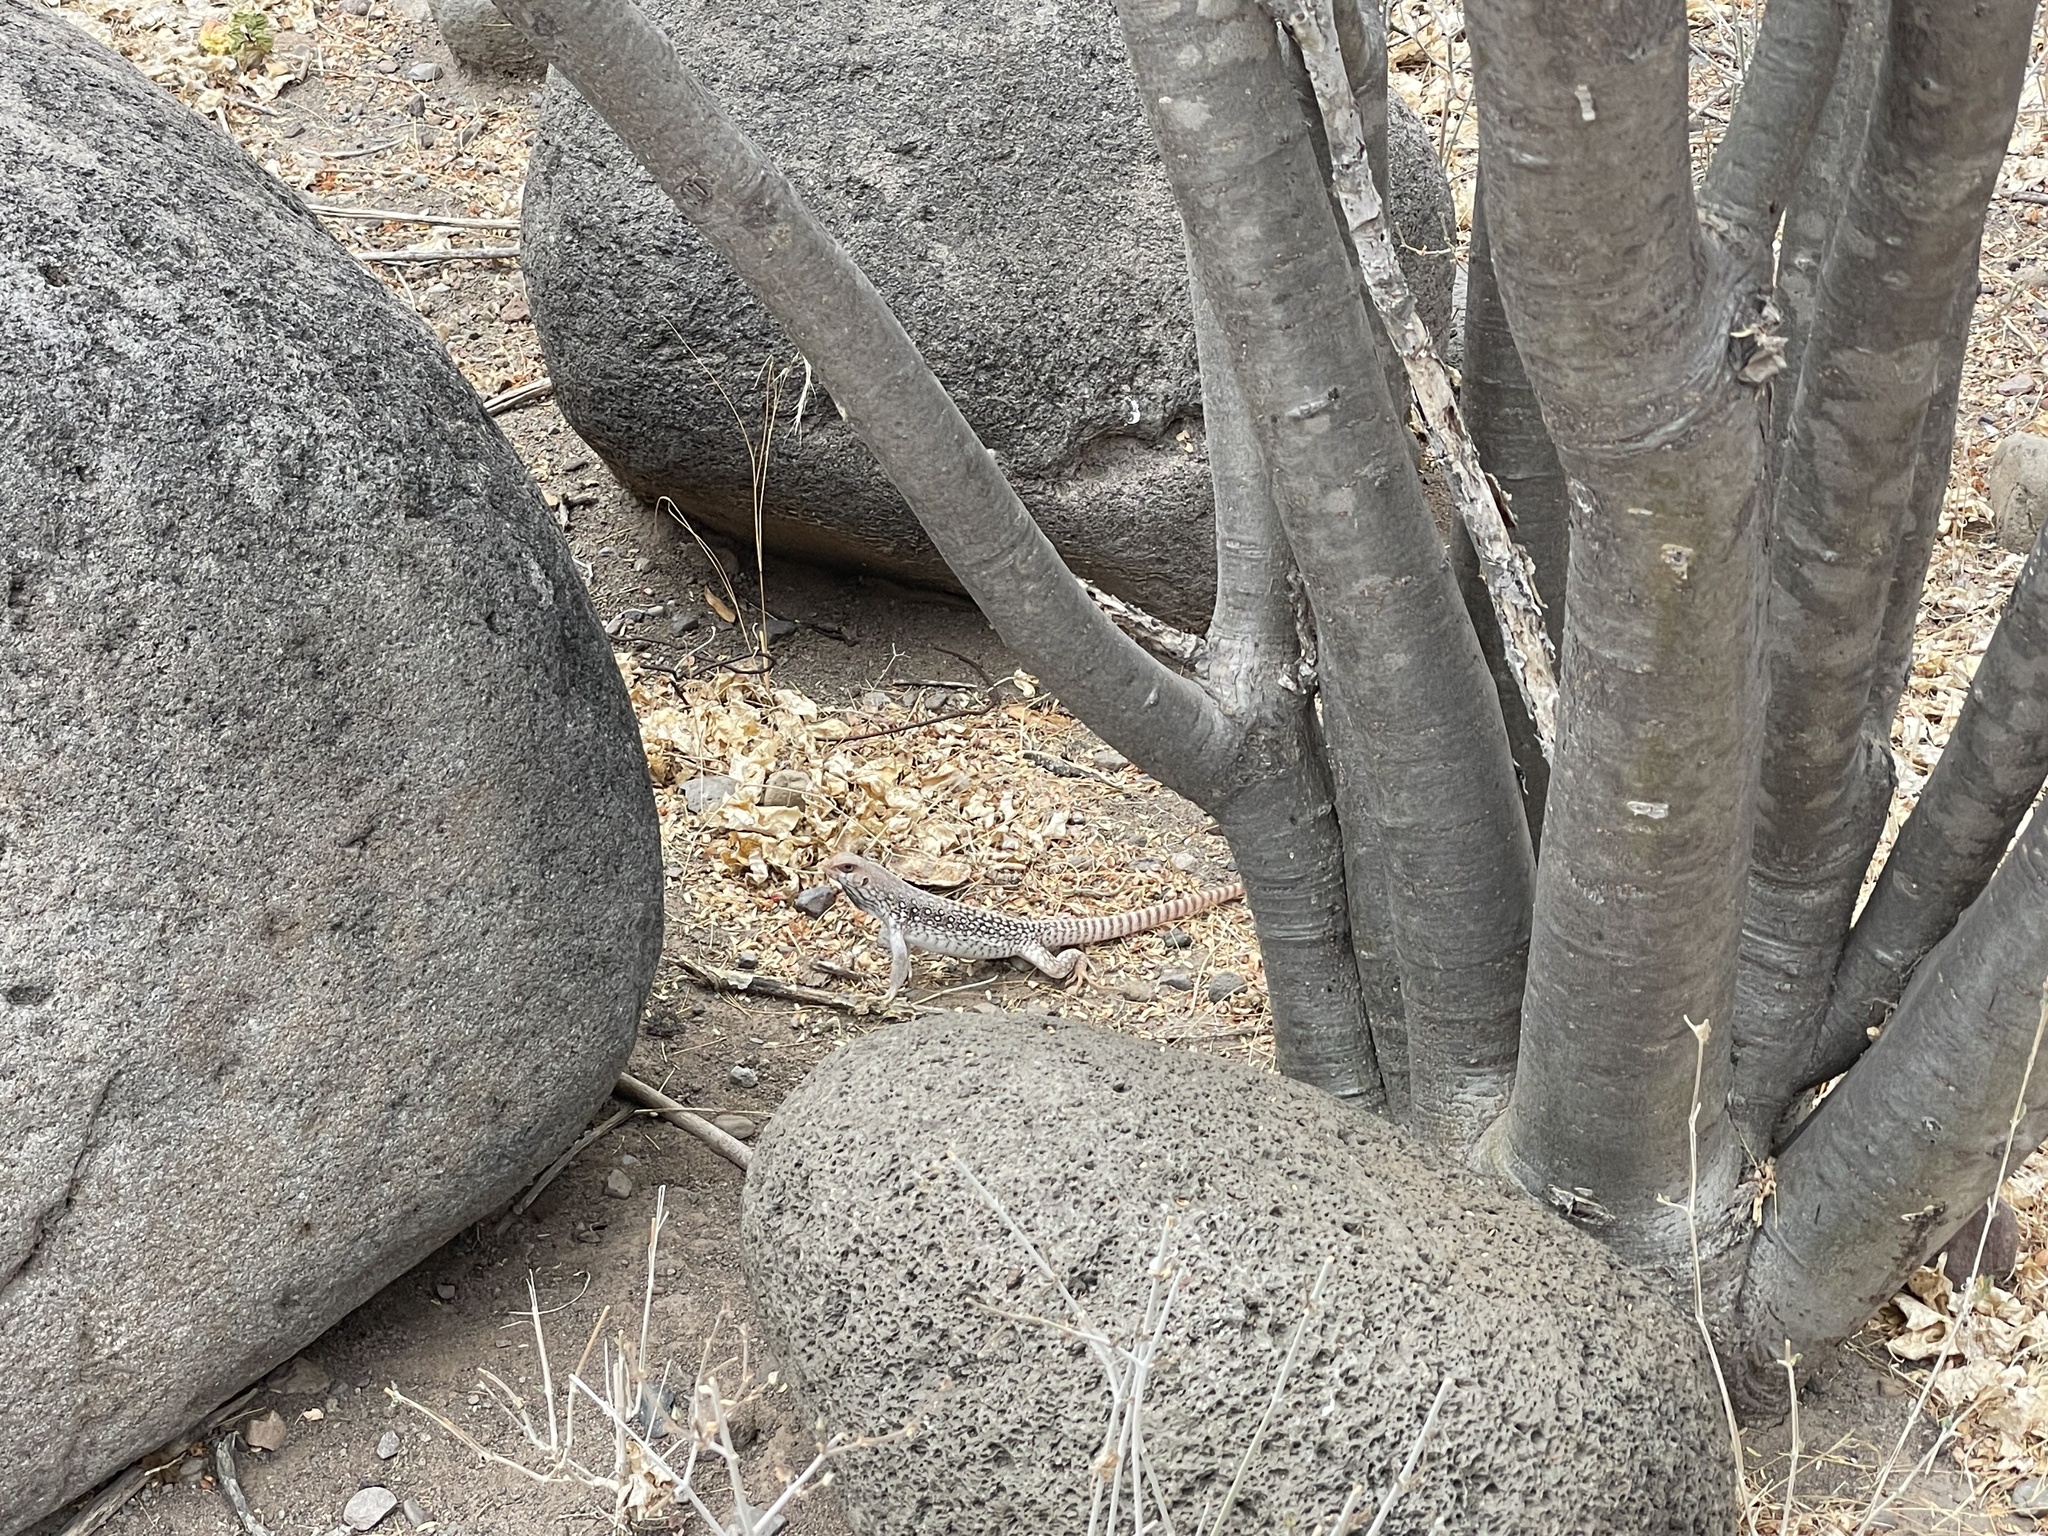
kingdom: Animalia
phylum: Chordata
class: Squamata
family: Iguanidae
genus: Dipsosaurus
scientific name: Dipsosaurus dorsalis
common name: Desert iguana
